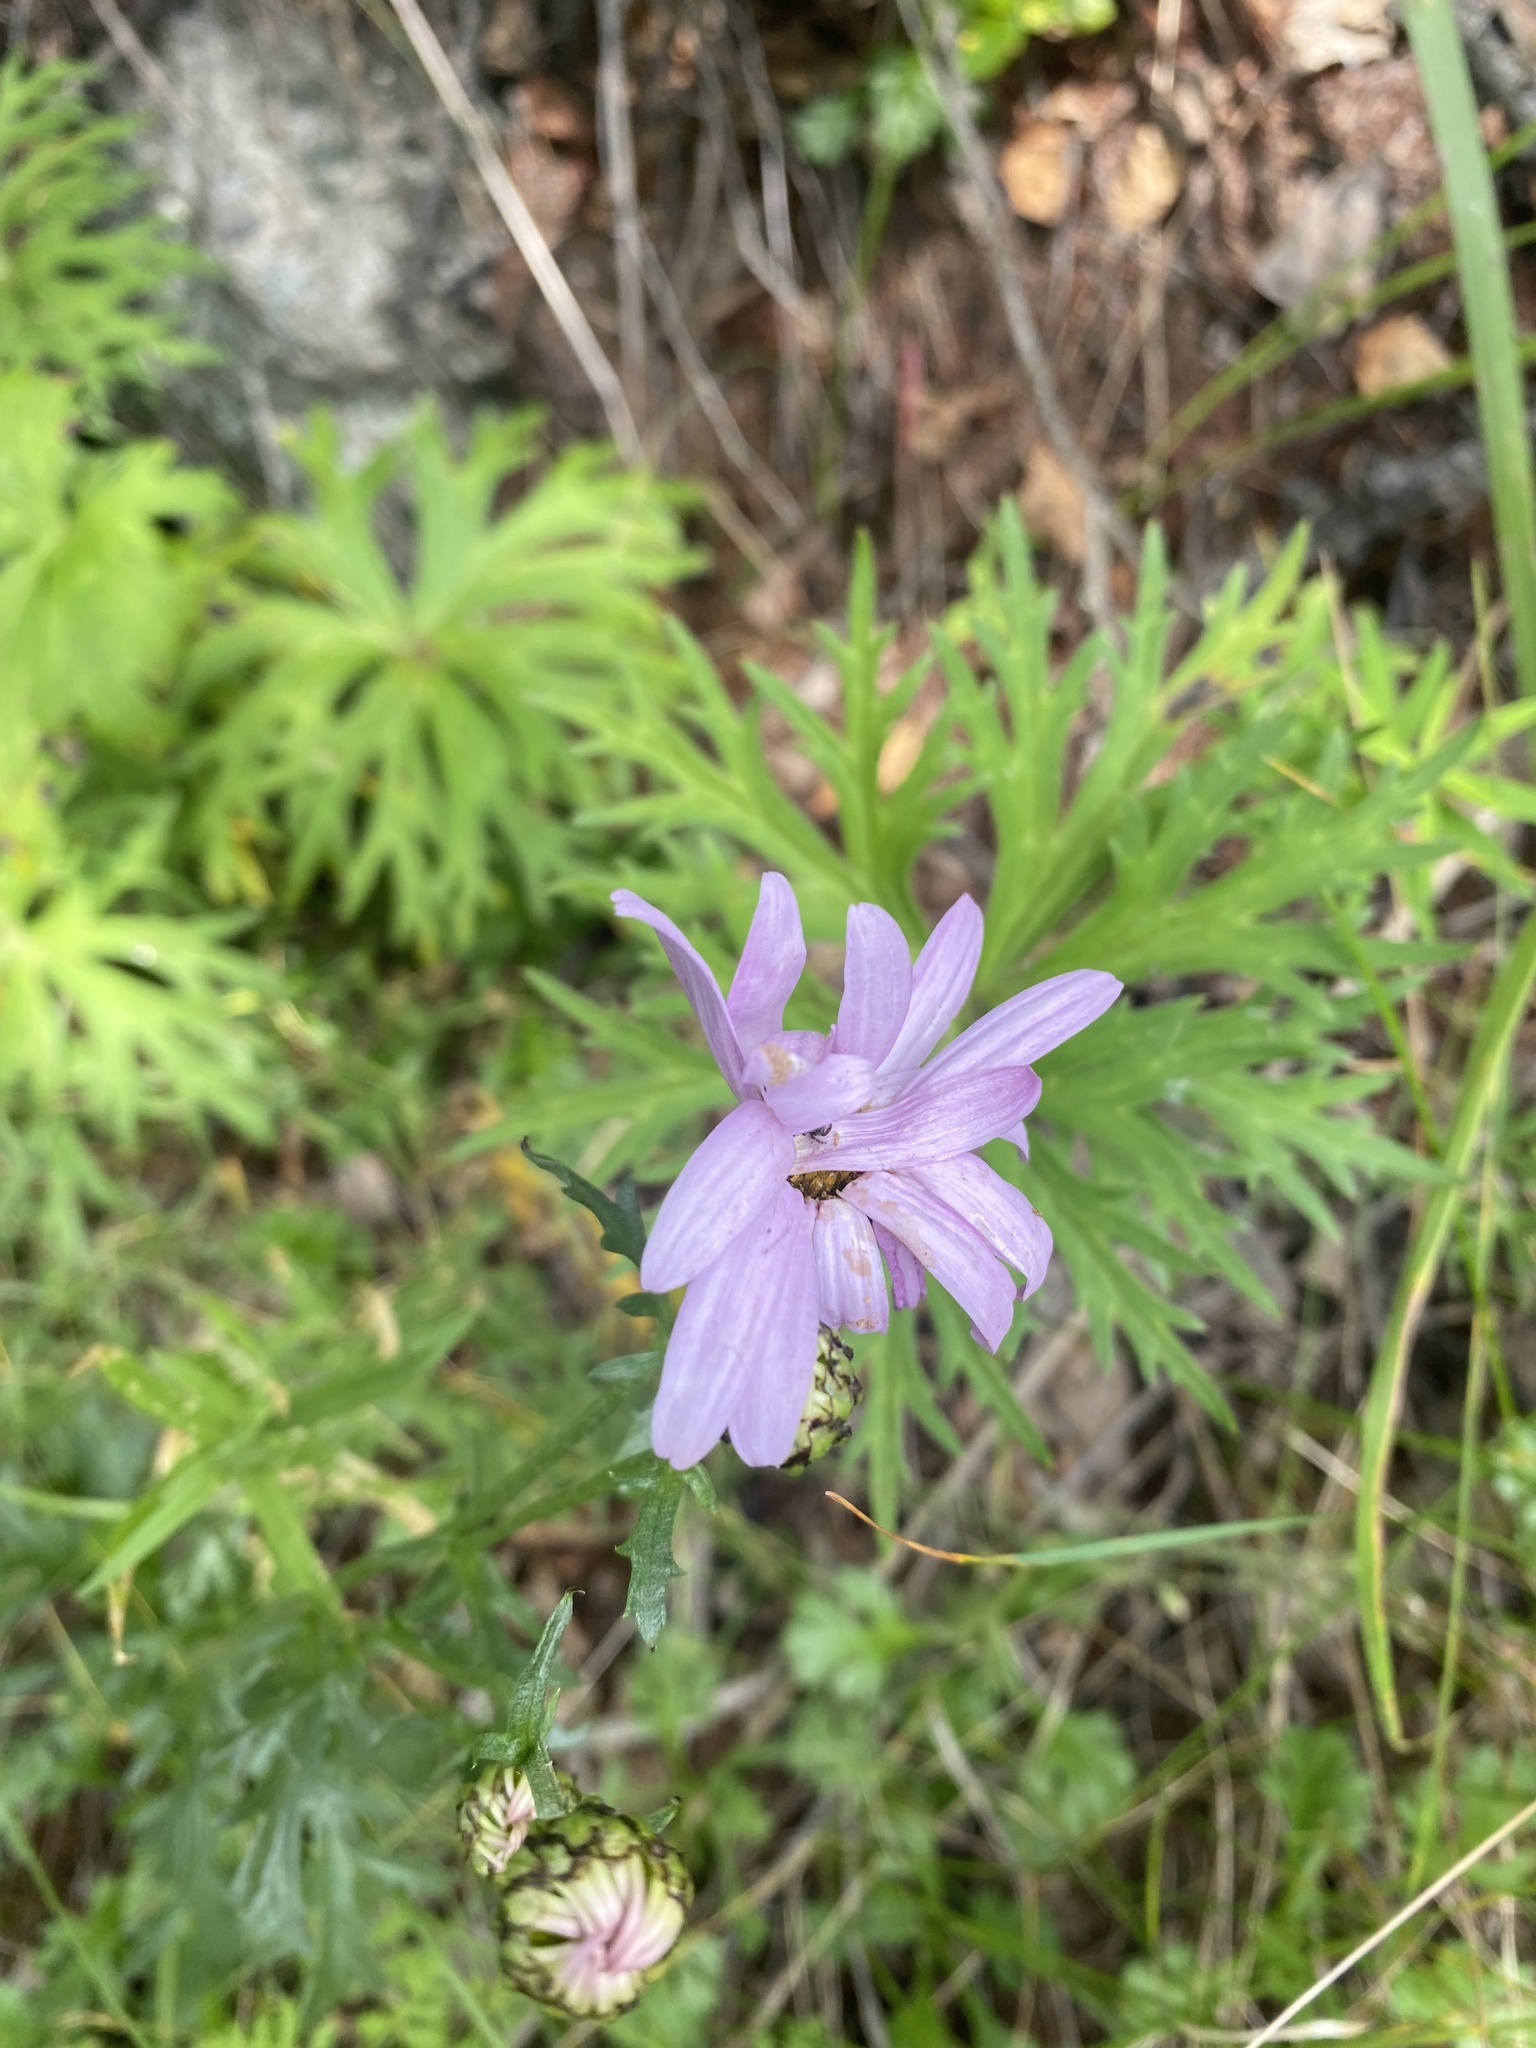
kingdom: Plantae
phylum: Tracheophyta
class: Magnoliopsida
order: Asterales
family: Asteraceae
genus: Chrysanthemum
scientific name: Chrysanthemum zawadzkii
